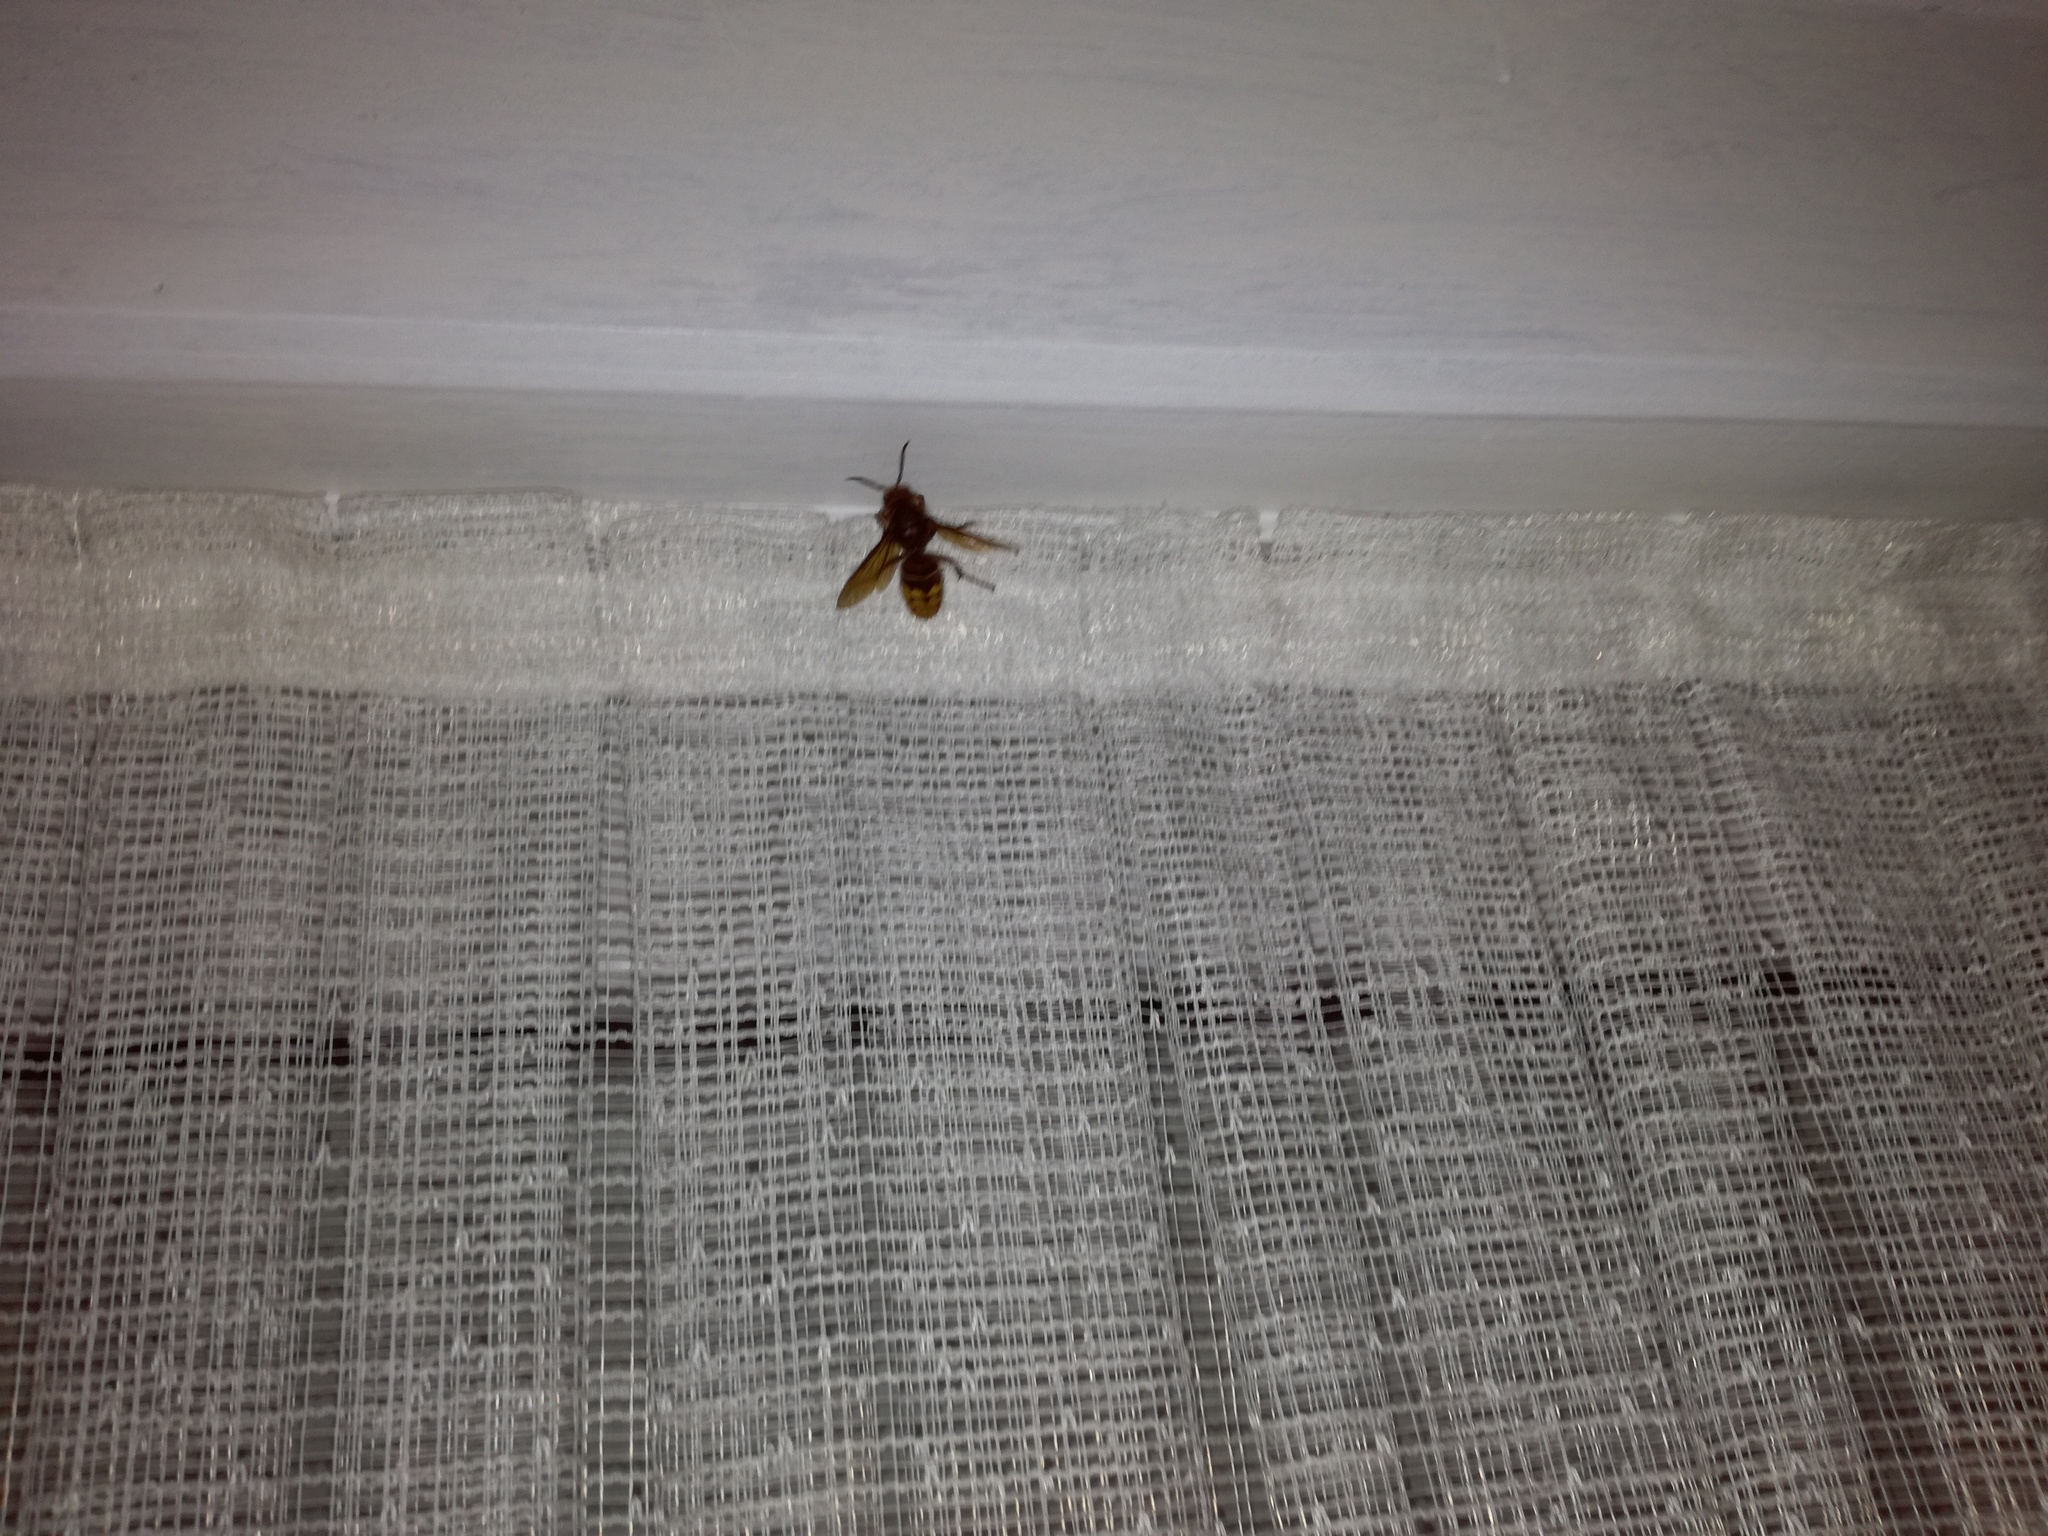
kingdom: Animalia
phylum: Arthropoda
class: Insecta
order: Hymenoptera
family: Vespidae
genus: Vespa
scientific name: Vespa crabro
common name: Hornet
